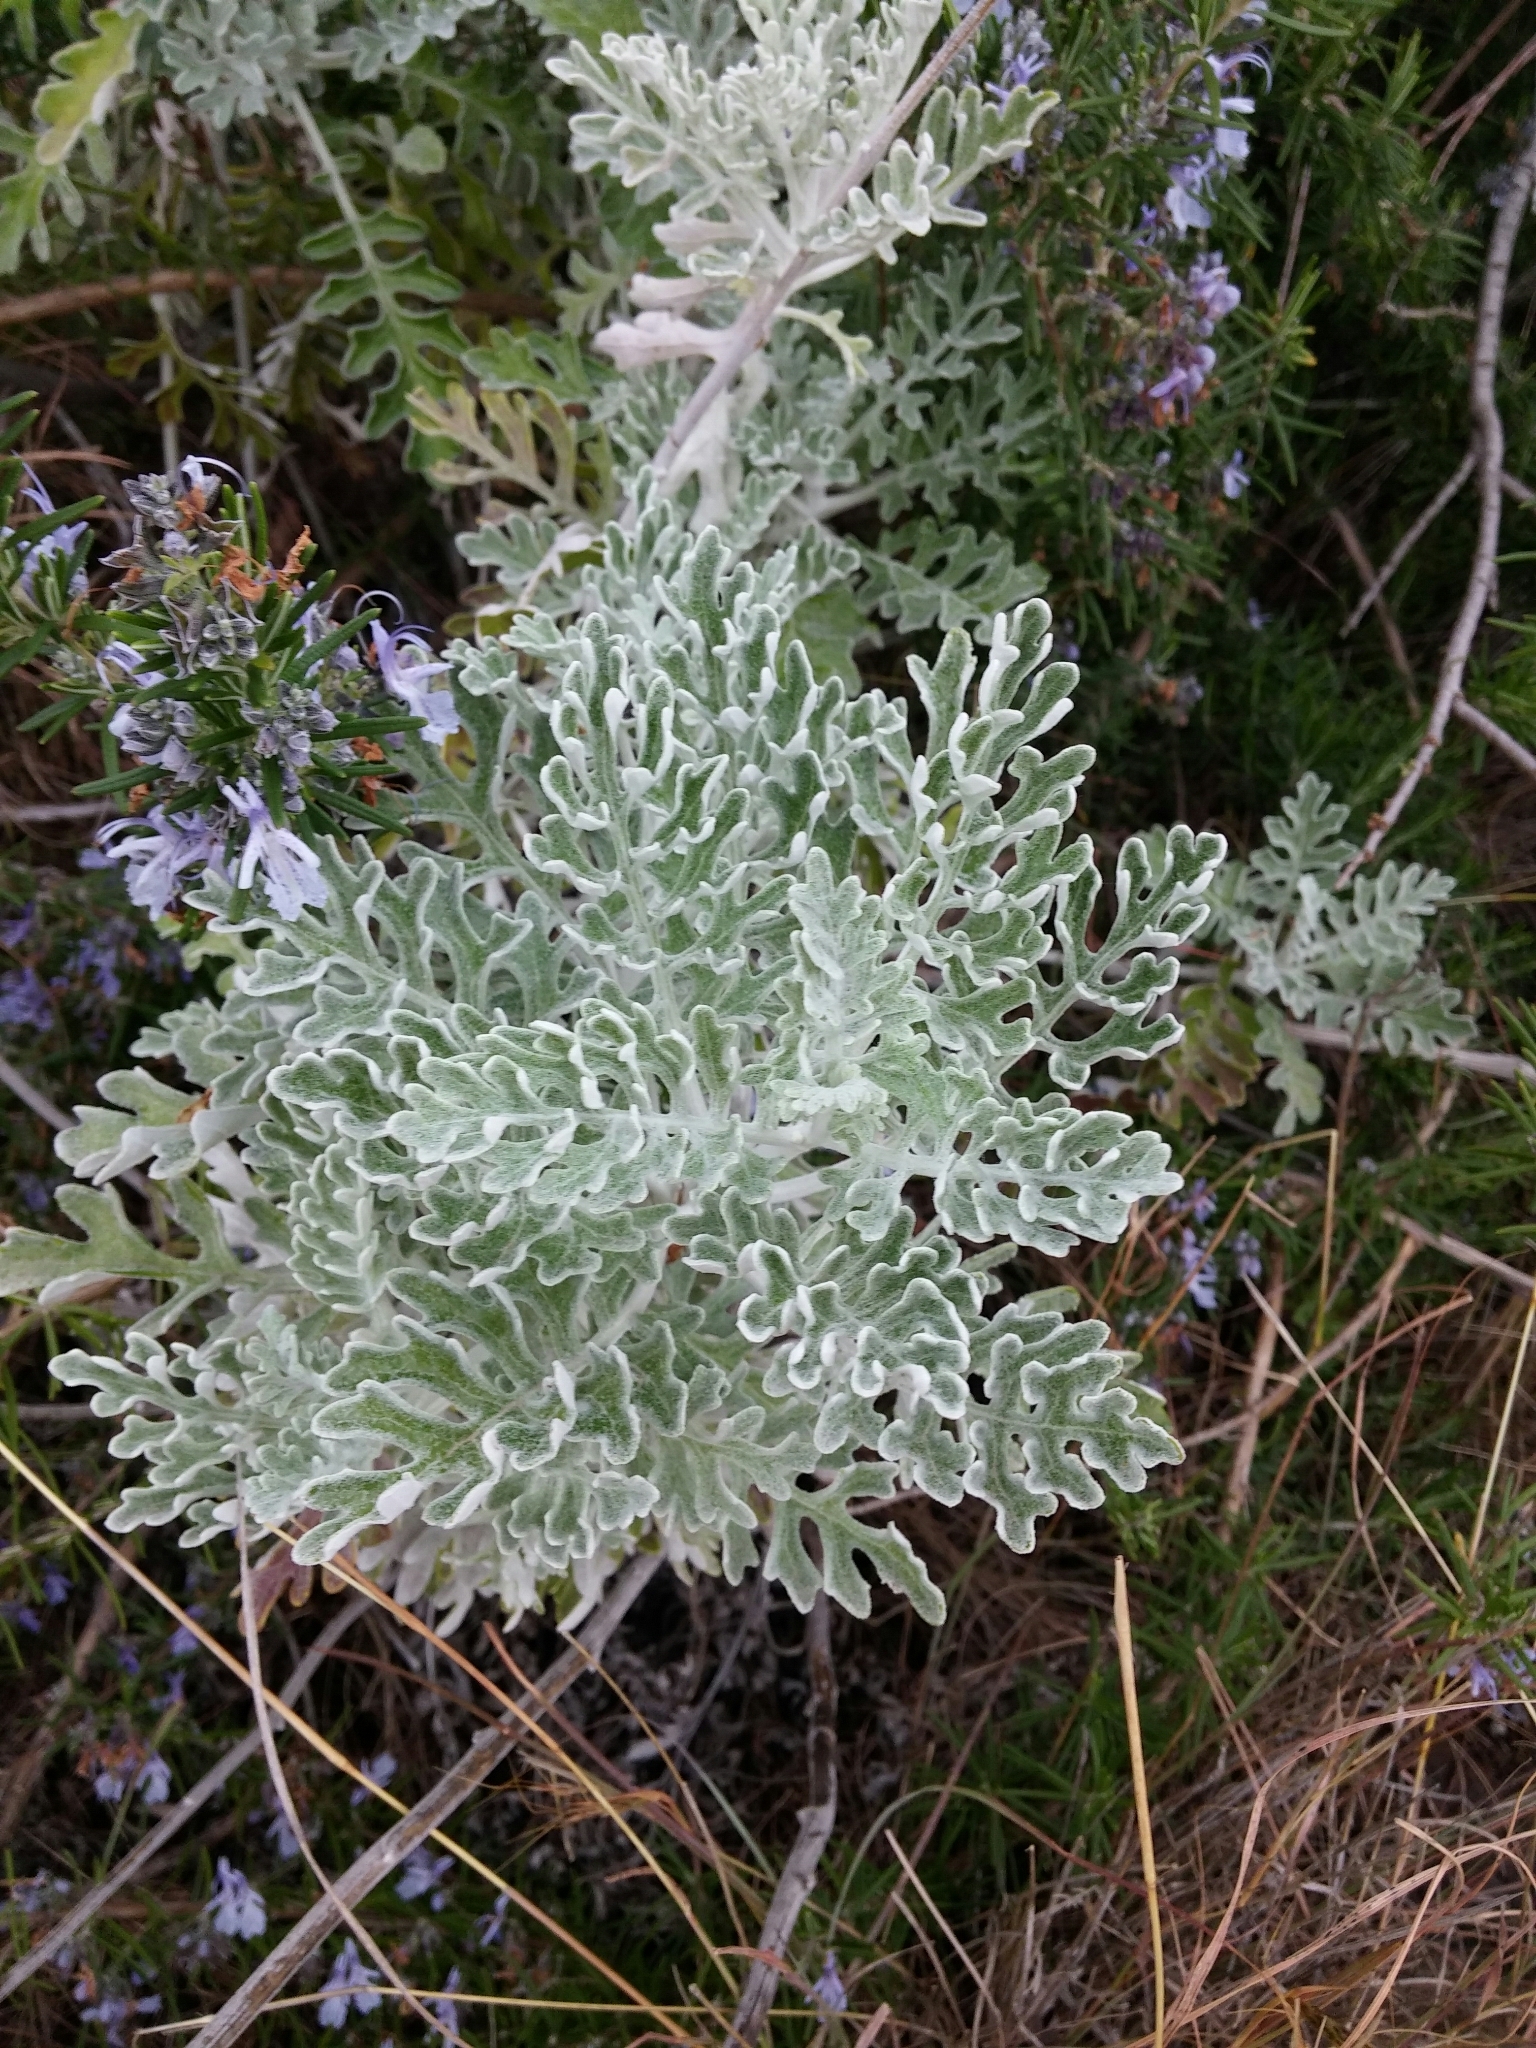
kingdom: Plantae
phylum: Tracheophyta
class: Magnoliopsida
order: Asterales
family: Asteraceae
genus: Jacobaea
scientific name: Jacobaea maritima
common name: Silver ragwort
